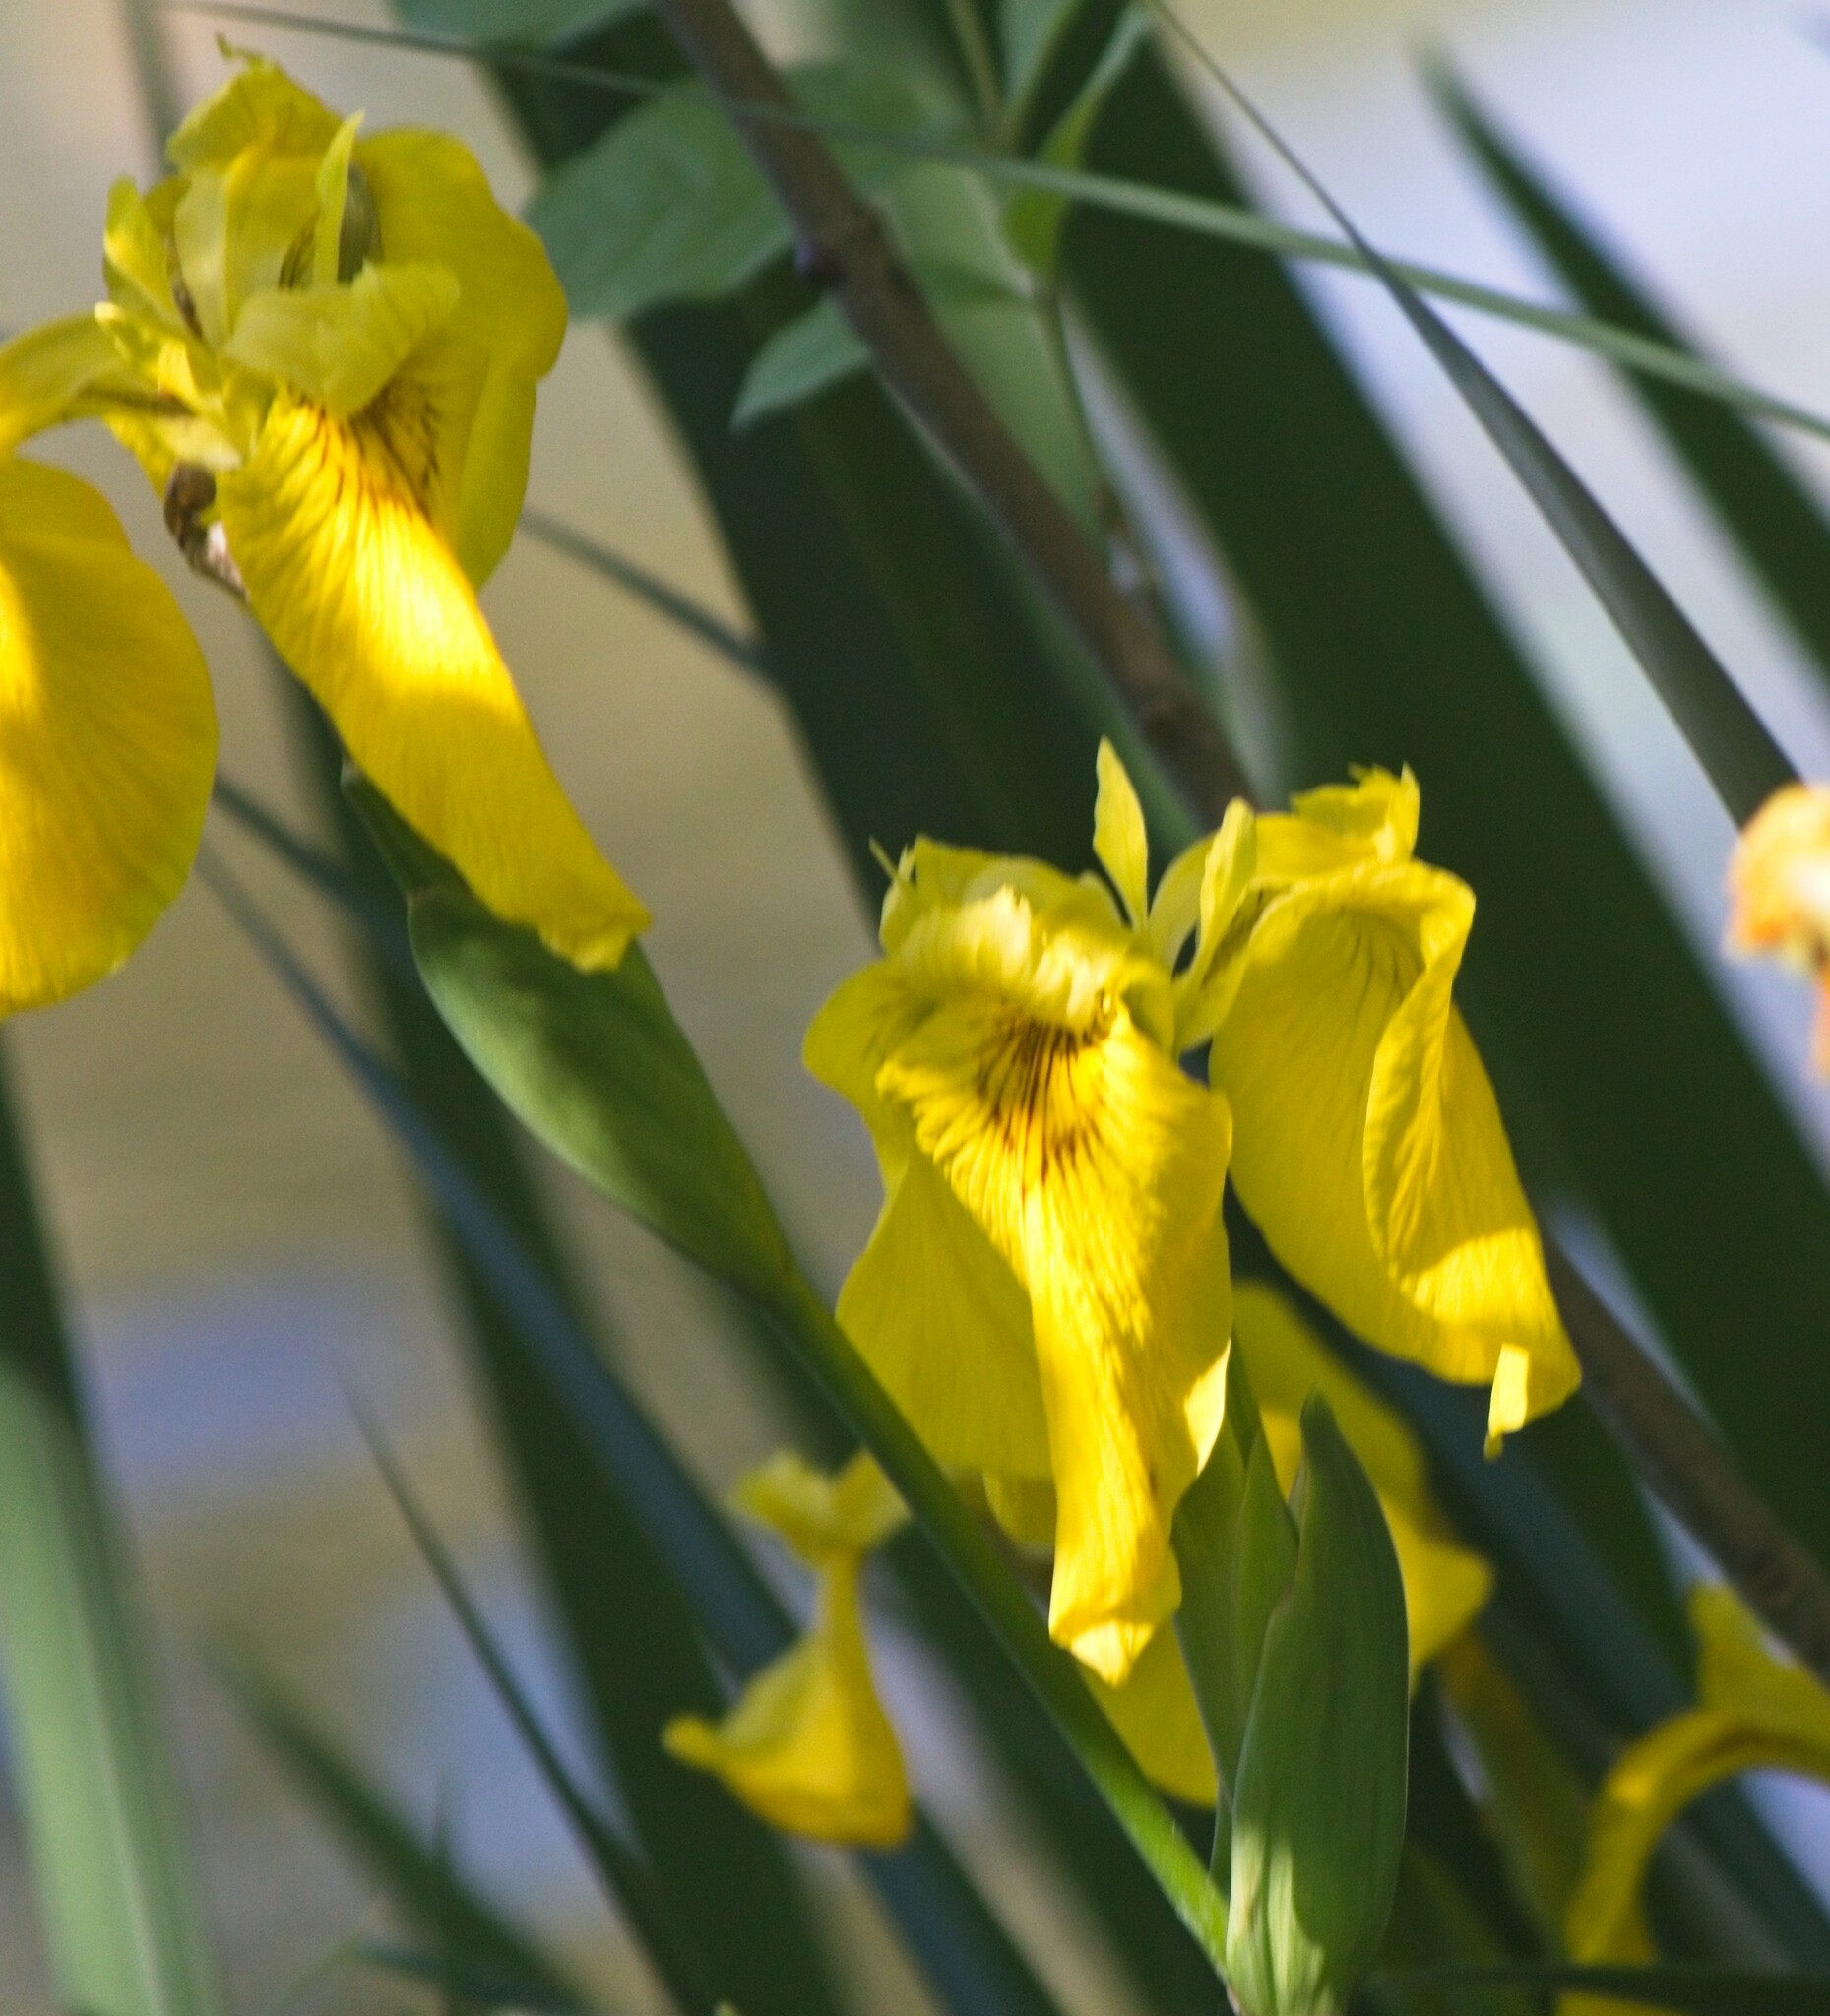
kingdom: Plantae
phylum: Tracheophyta
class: Liliopsida
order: Asparagales
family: Iridaceae
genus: Iris
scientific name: Iris pseudacorus
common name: Yellow flag
